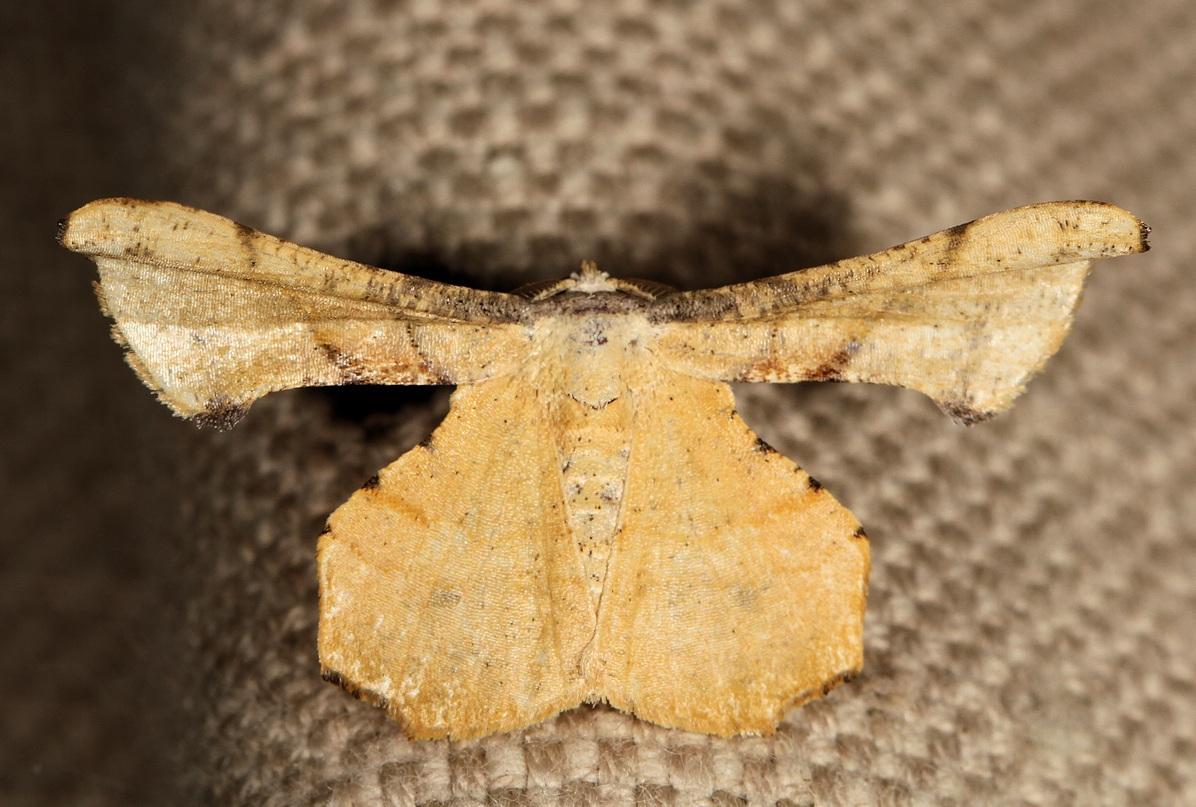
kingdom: Animalia
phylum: Arthropoda
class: Insecta
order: Lepidoptera
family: Geometridae
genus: Xenimpia
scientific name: Xenimpia erosa
